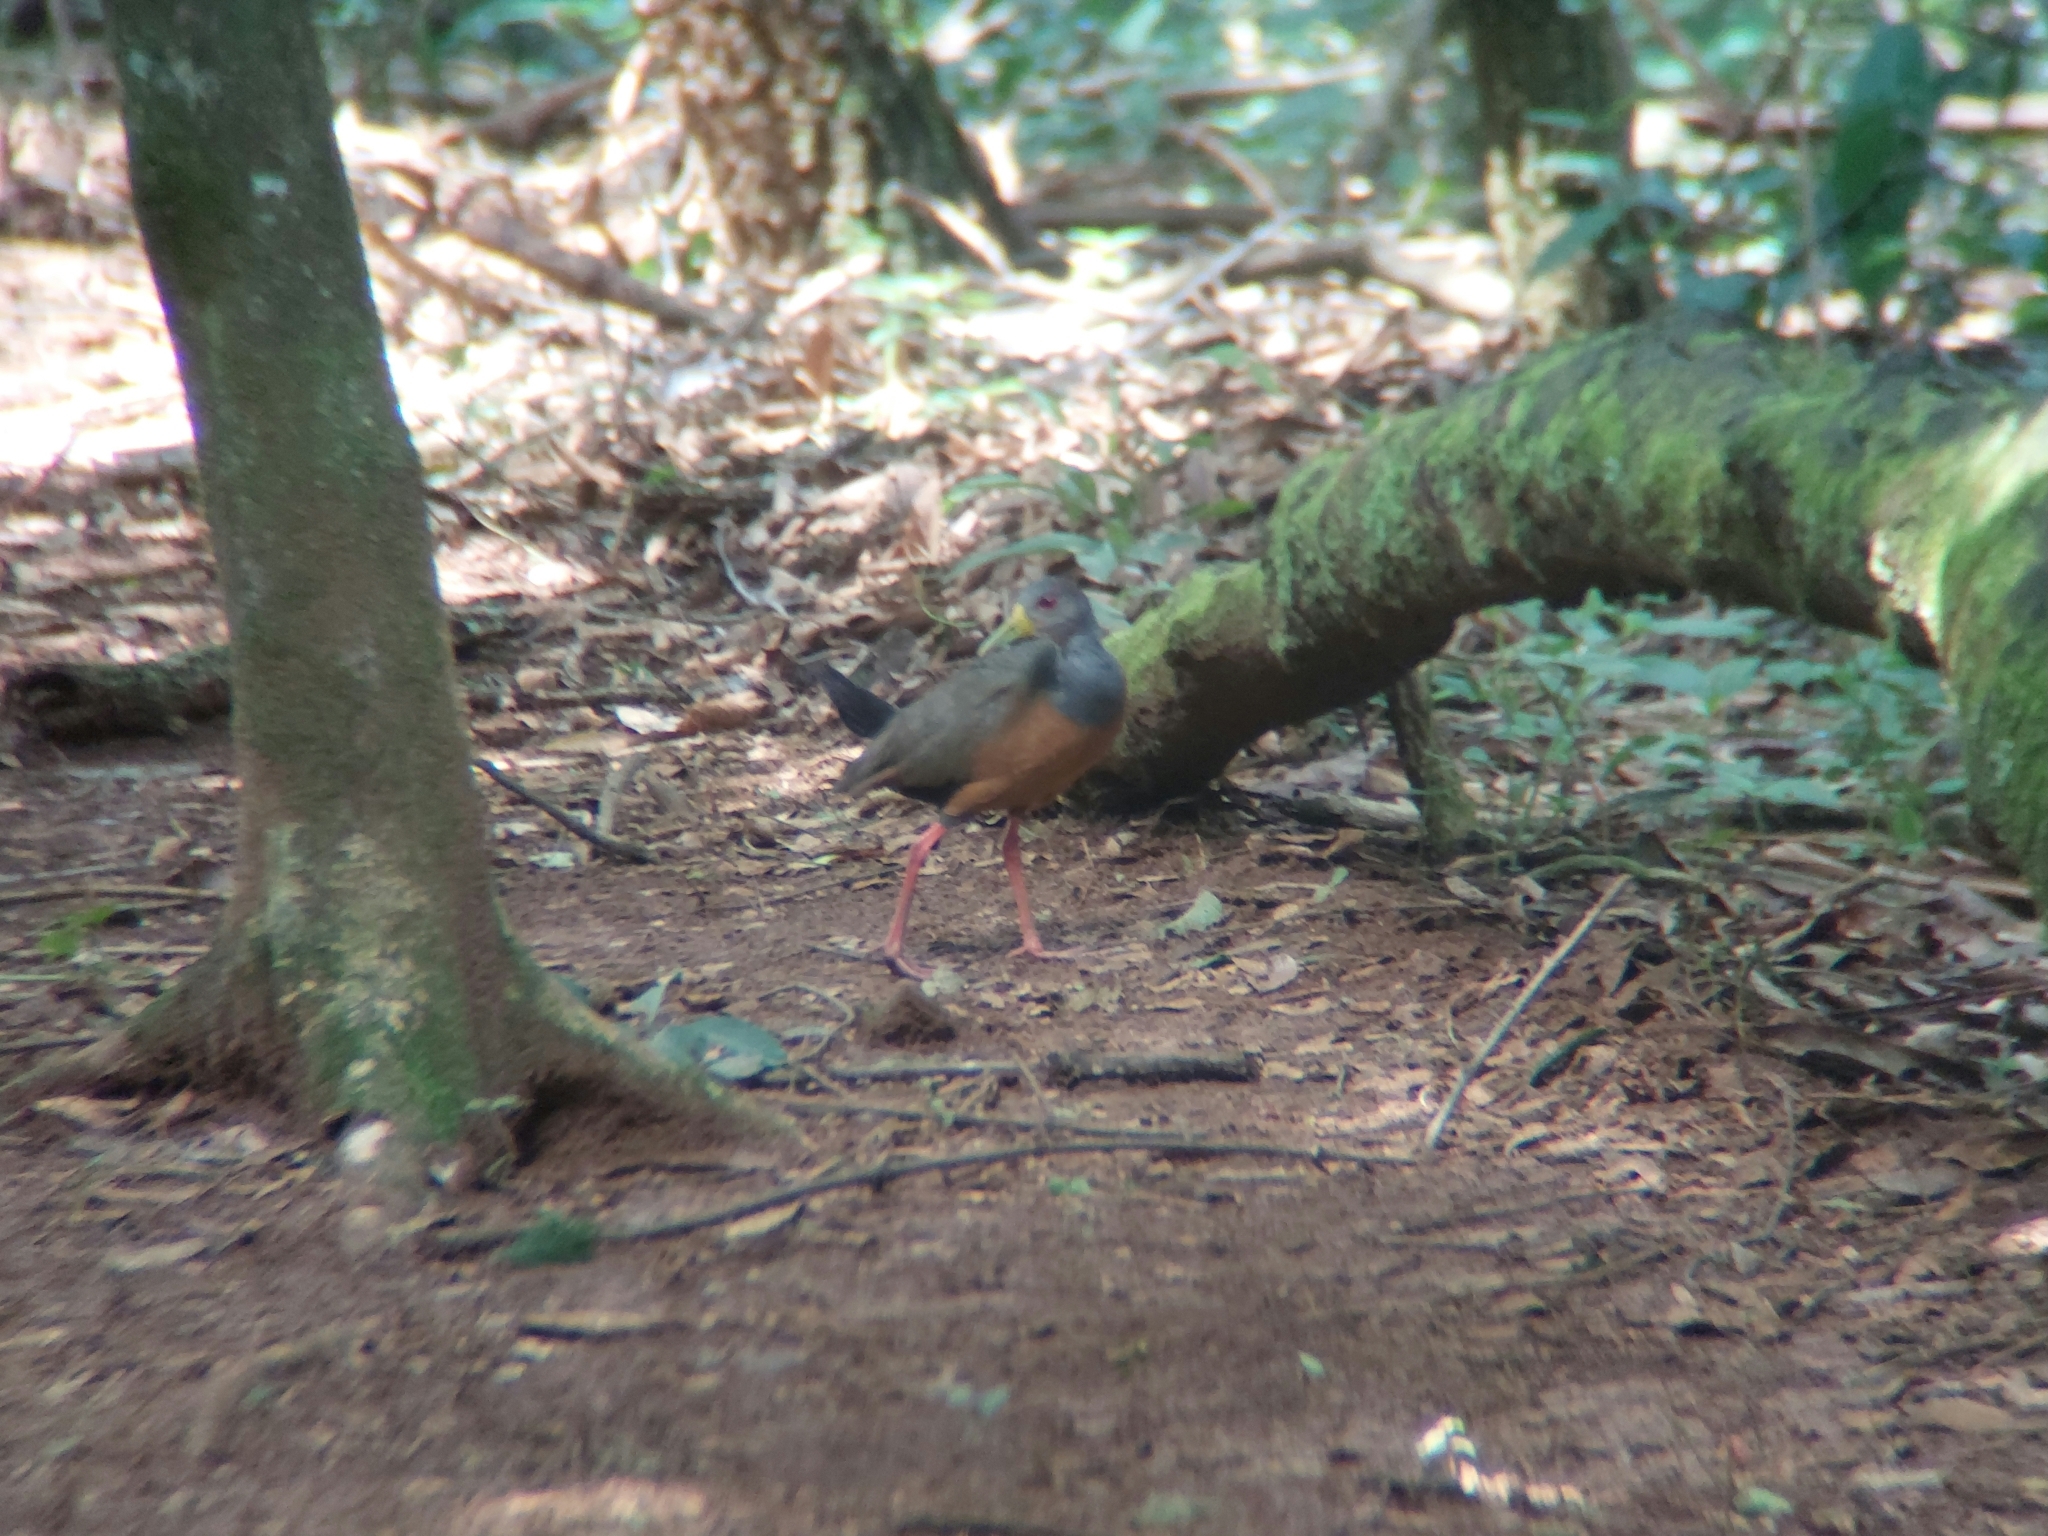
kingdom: Animalia
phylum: Chordata
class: Aves
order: Gruiformes
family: Rallidae
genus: Aramides
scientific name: Aramides cajanea
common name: Gray-necked wood-rail
